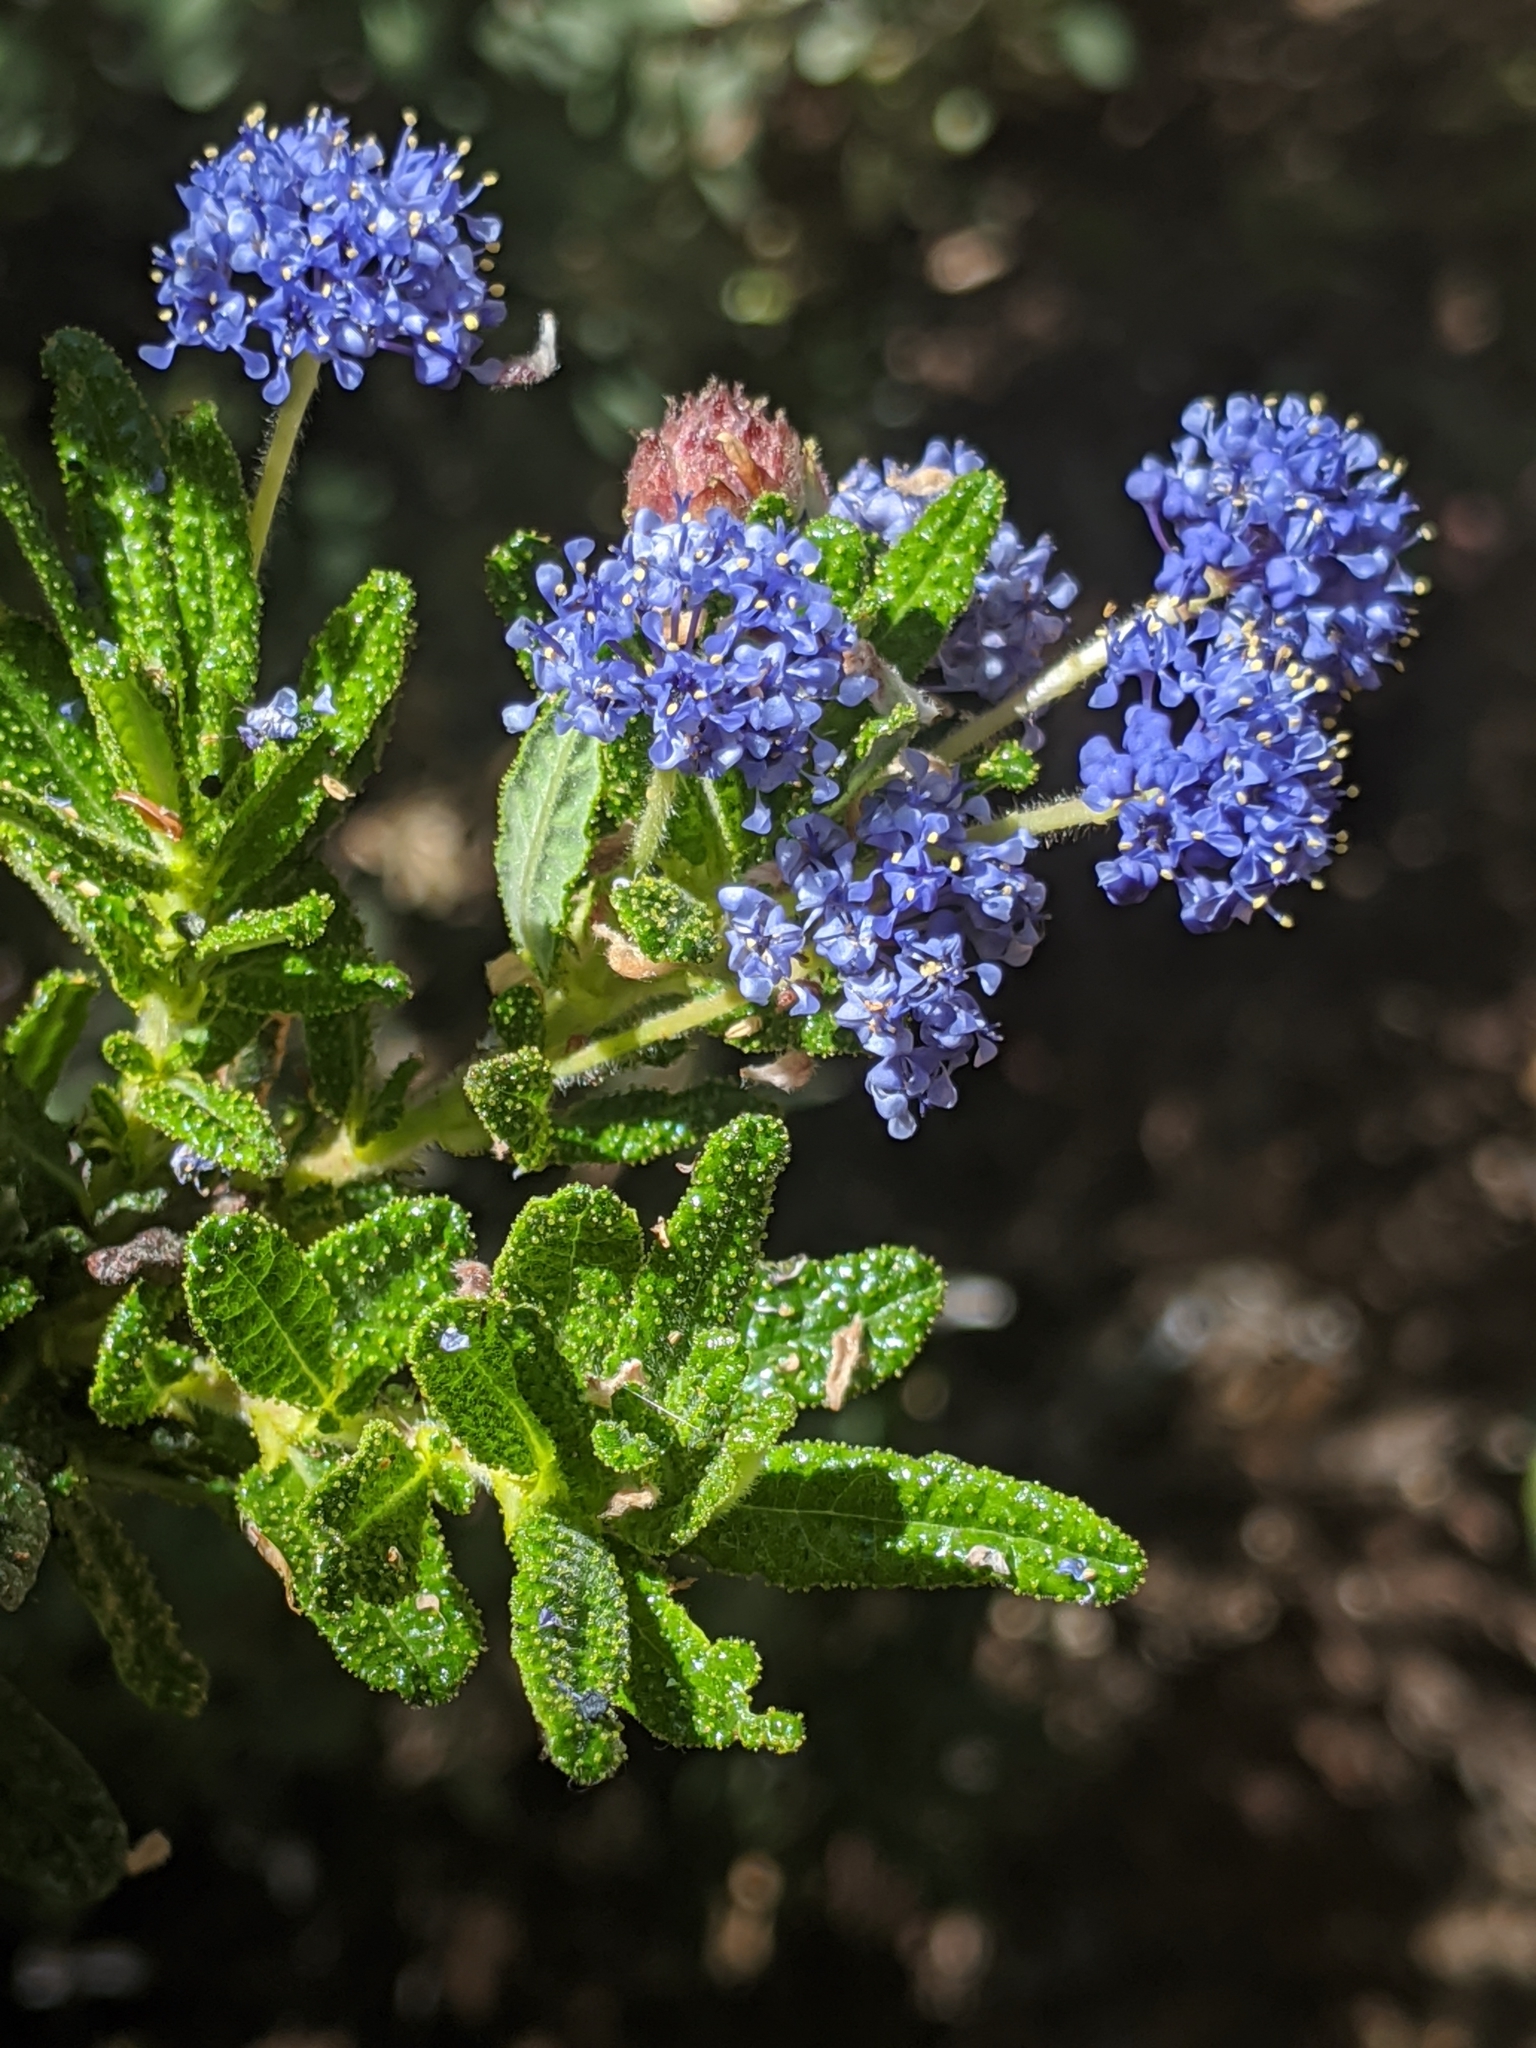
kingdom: Plantae
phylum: Tracheophyta
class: Magnoliopsida
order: Rosales
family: Rhamnaceae
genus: Ceanothus
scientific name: Ceanothus papillosus
